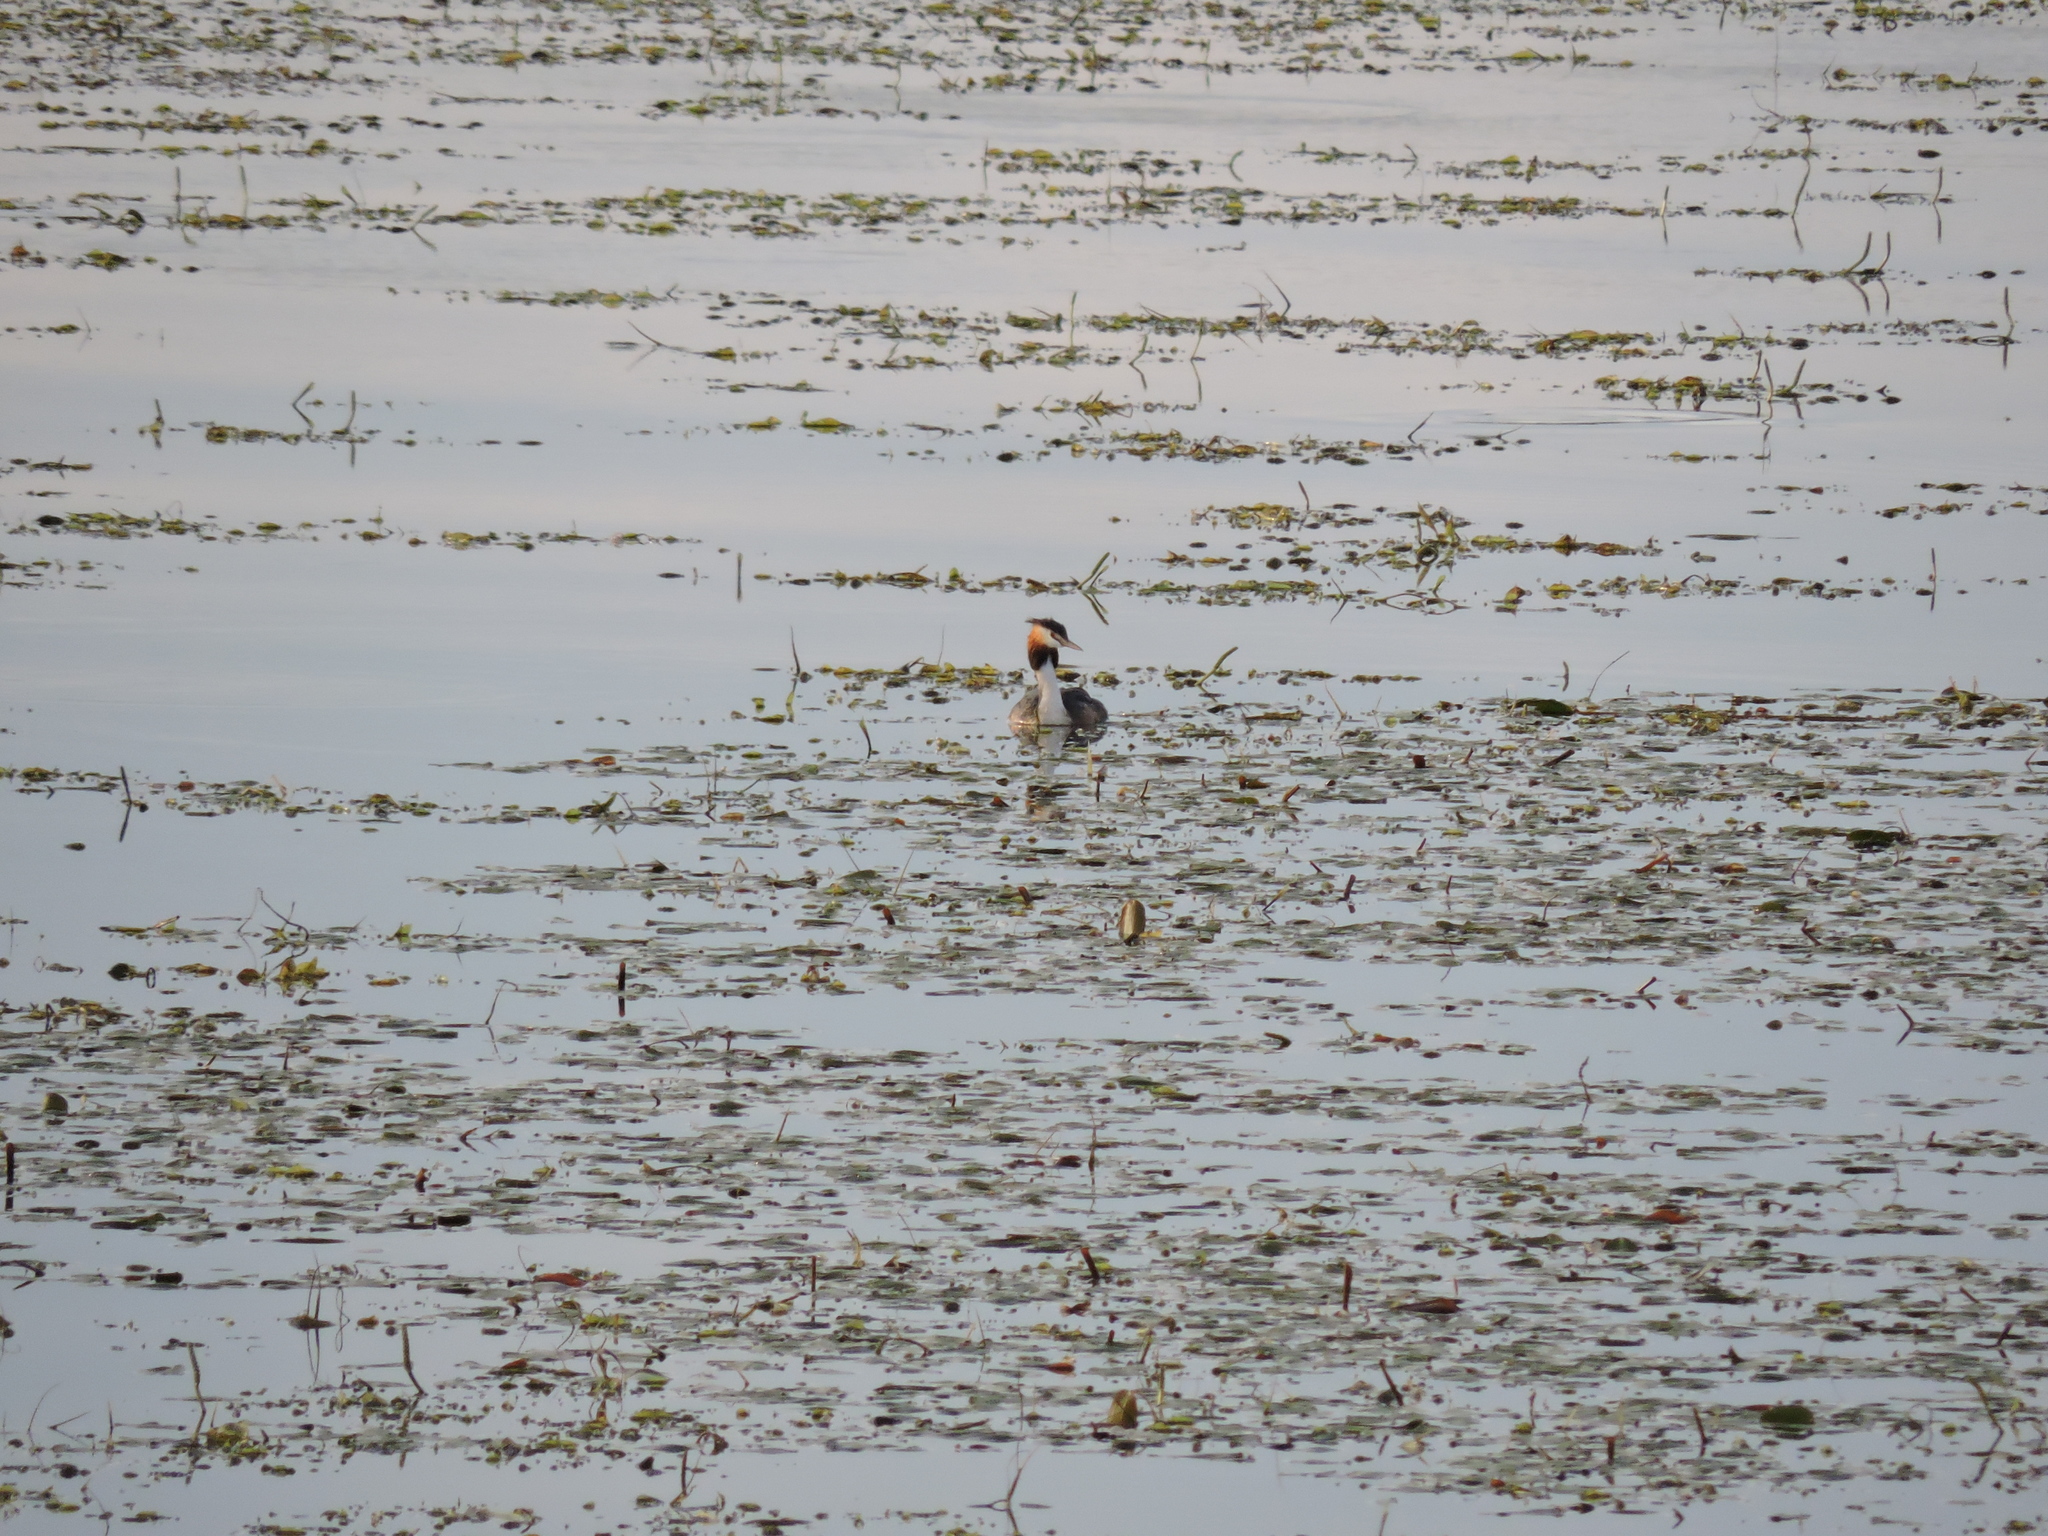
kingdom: Animalia
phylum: Chordata
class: Aves
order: Podicipediformes
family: Podicipedidae
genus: Podiceps
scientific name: Podiceps cristatus
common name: Great crested grebe
